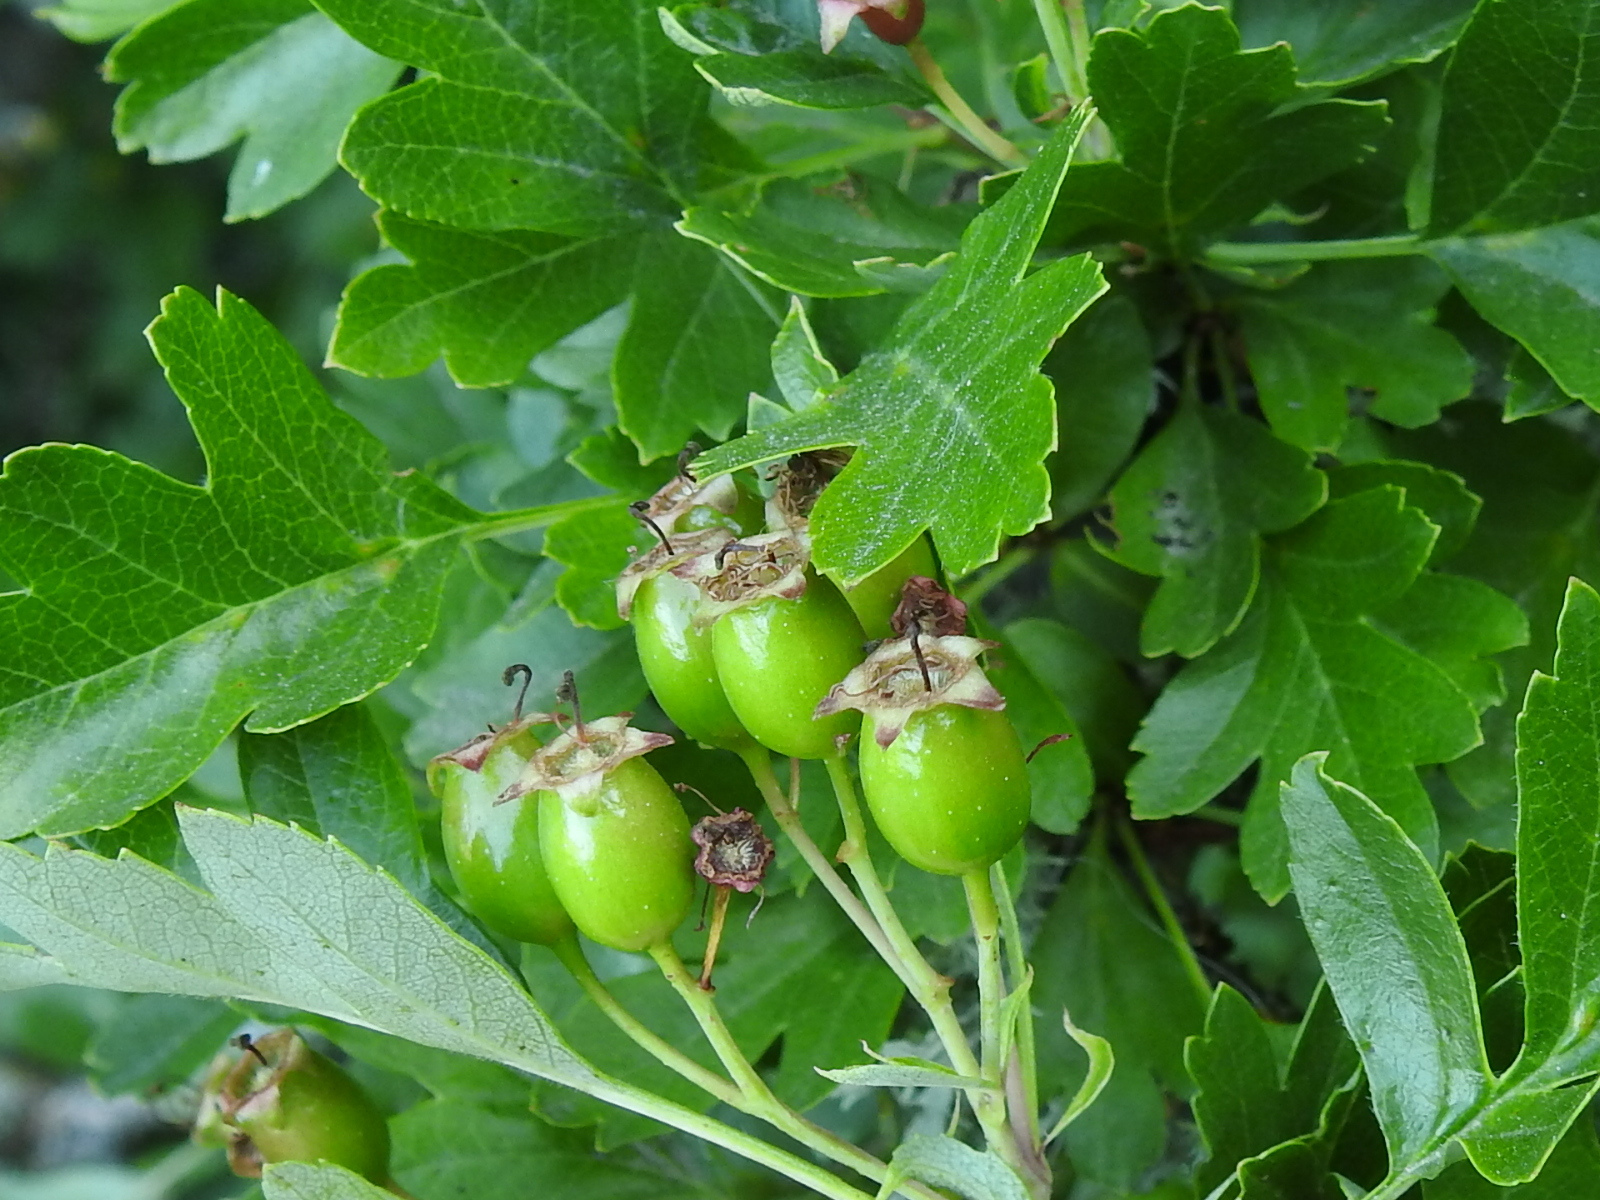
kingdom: Plantae
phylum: Tracheophyta
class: Magnoliopsida
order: Rosales
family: Rosaceae
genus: Crataegus
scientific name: Crataegus monogyna
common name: Hawthorn
